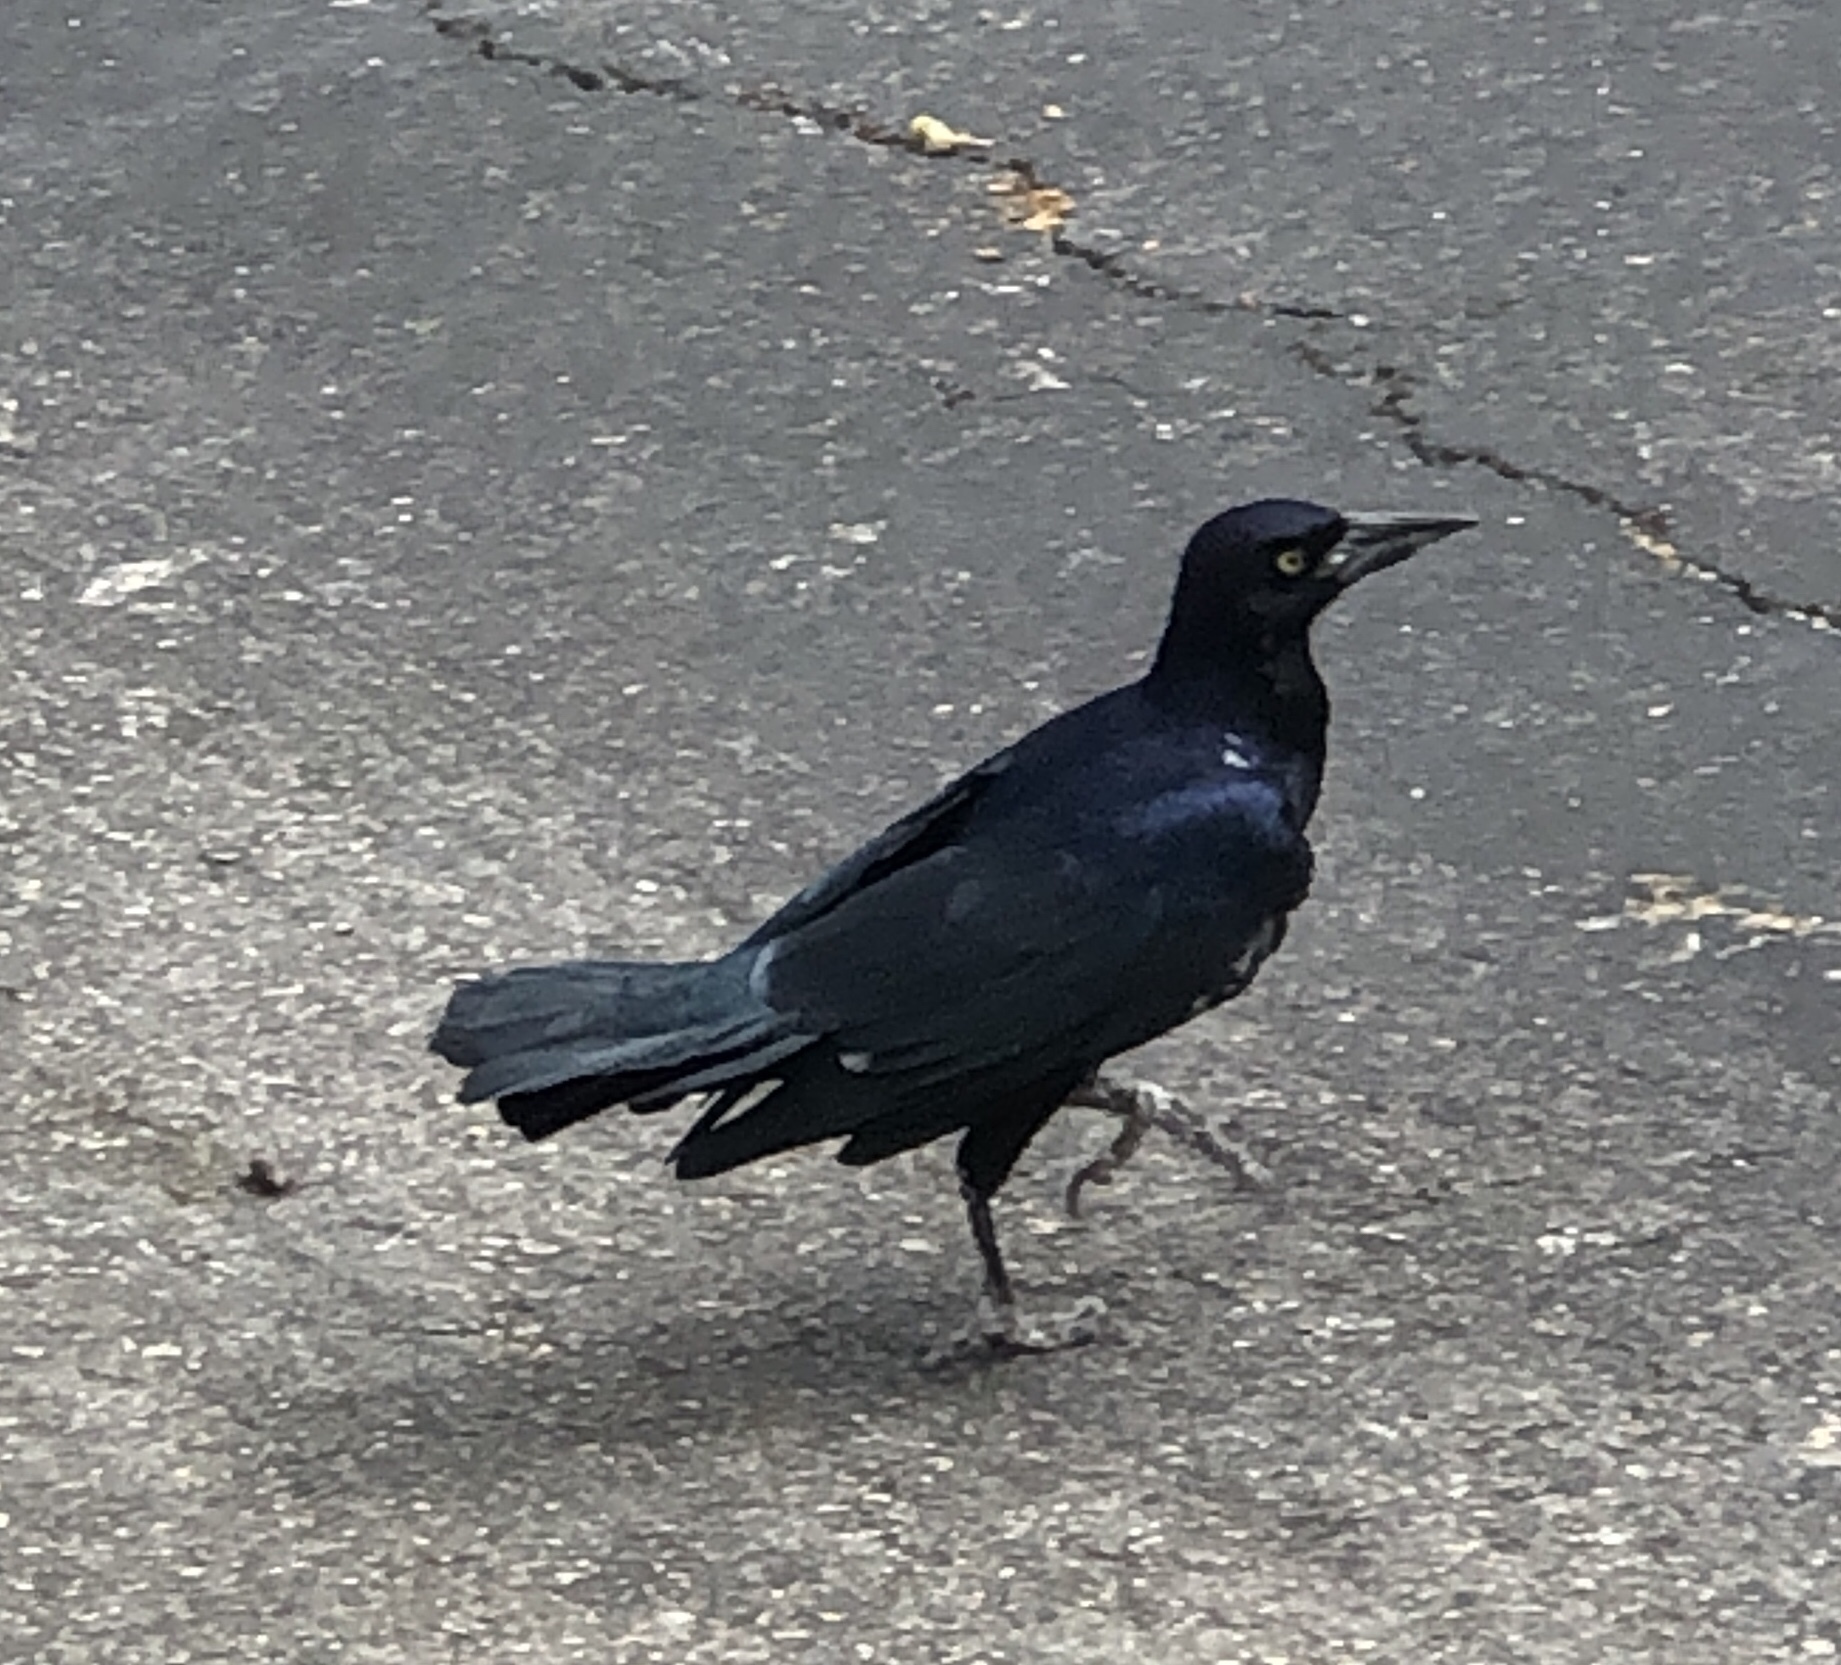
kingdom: Animalia
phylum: Chordata
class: Aves
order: Passeriformes
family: Icteridae
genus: Quiscalus
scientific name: Quiscalus mexicanus
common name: Great-tailed grackle
